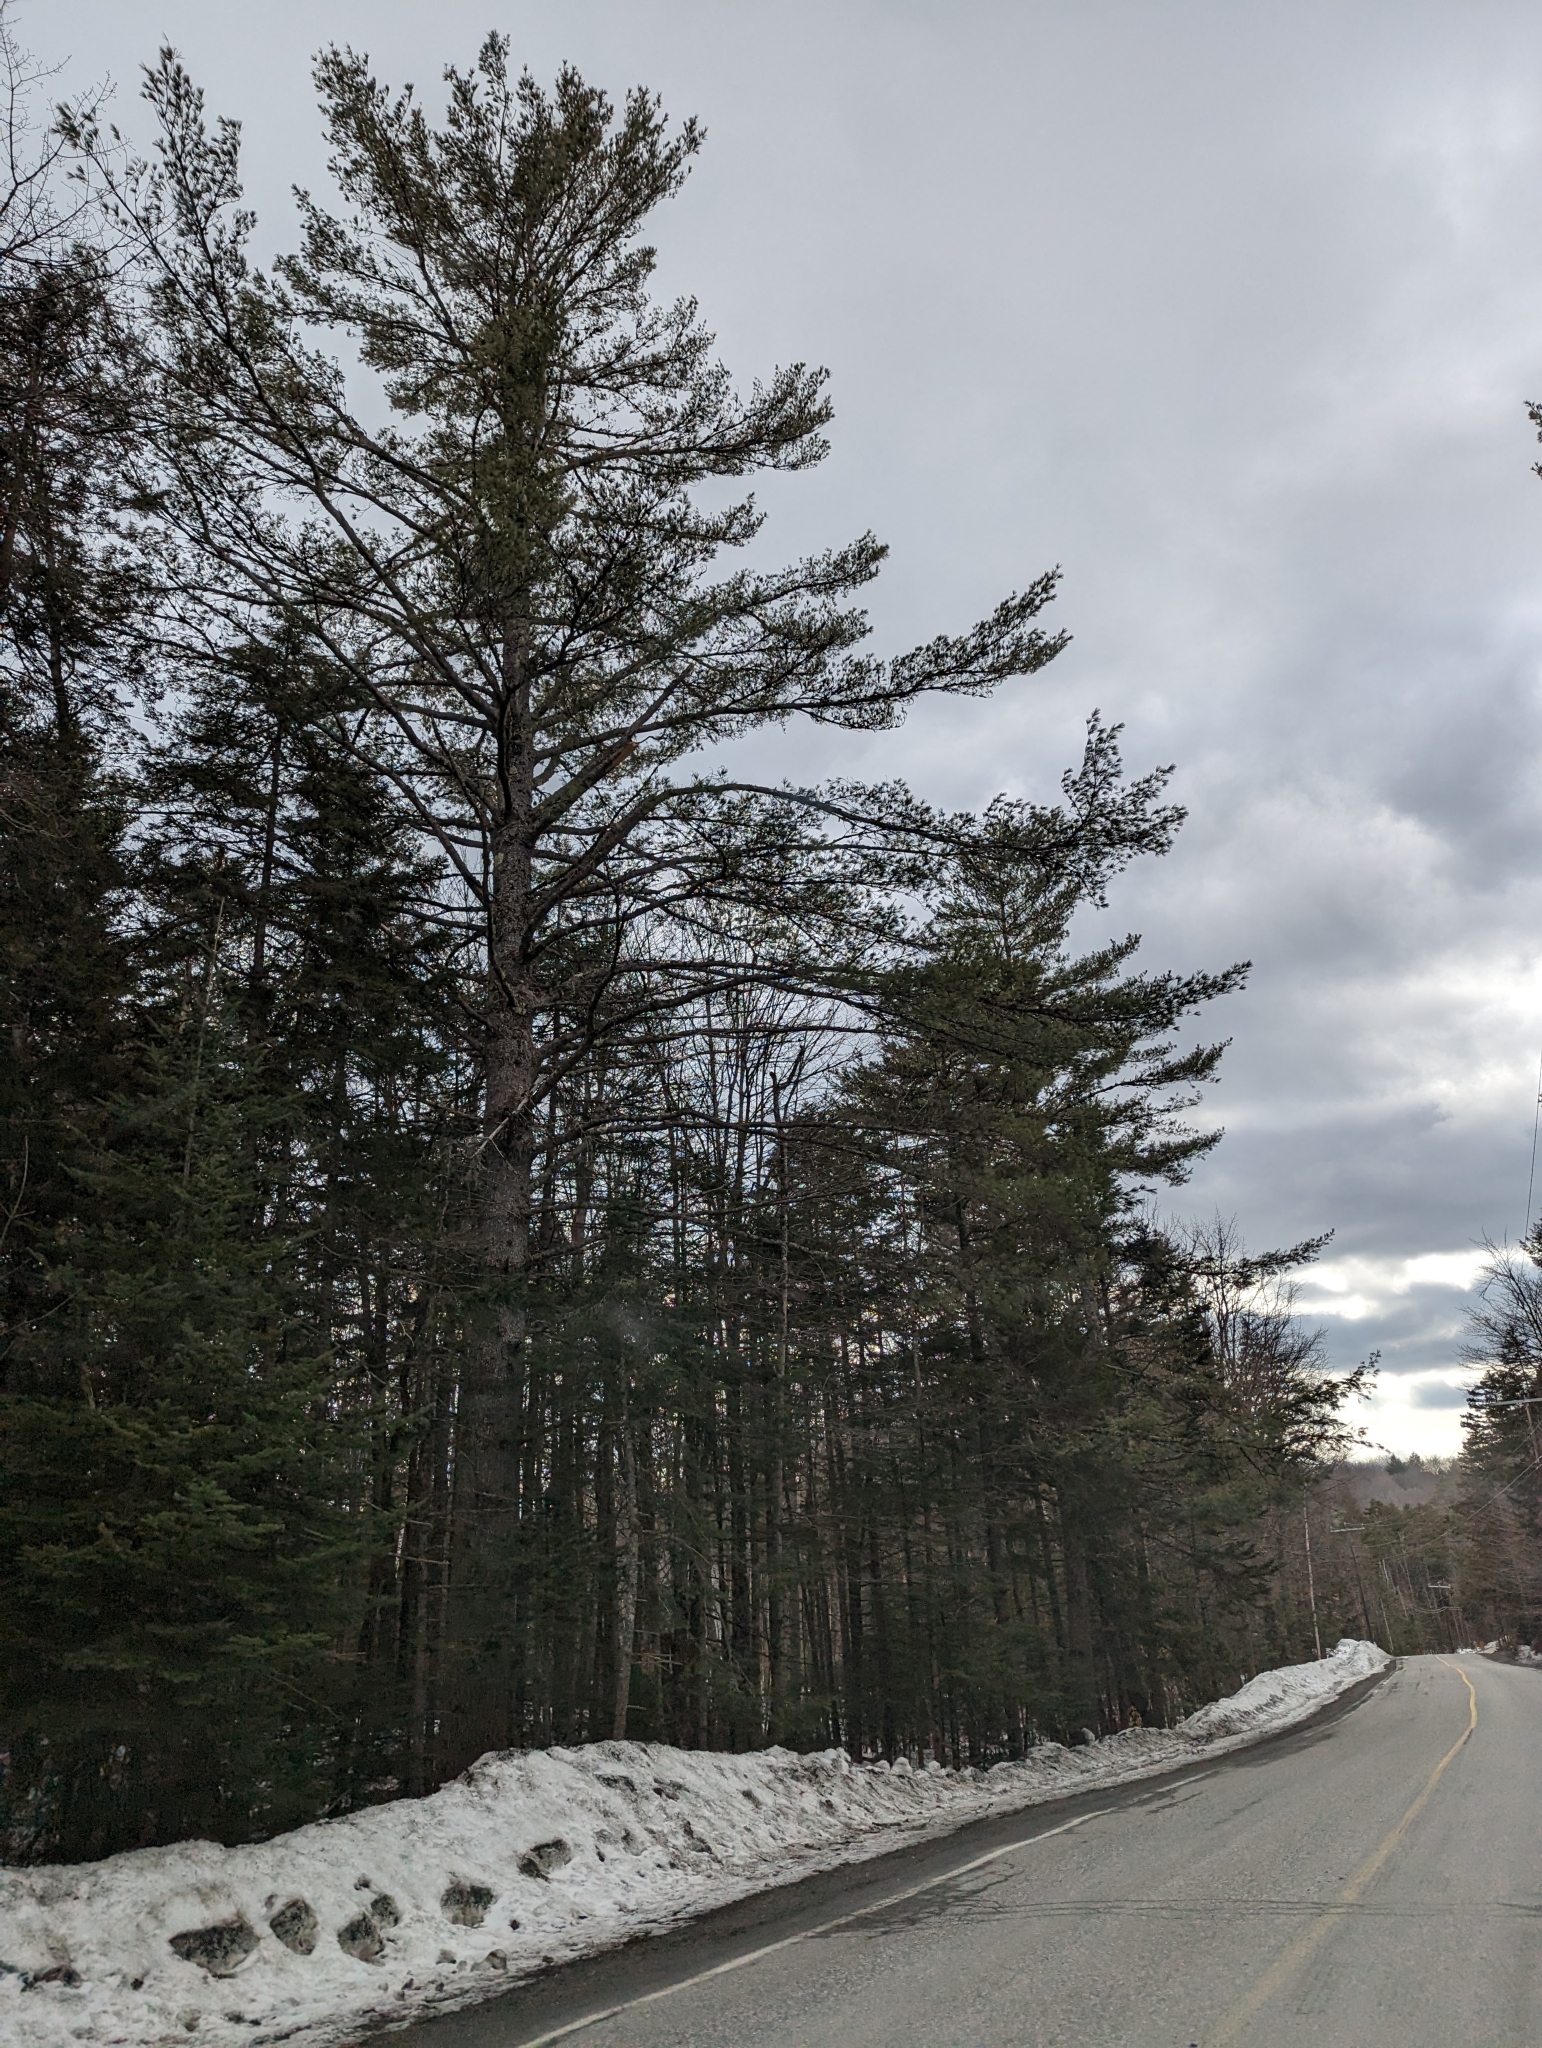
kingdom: Plantae
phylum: Tracheophyta
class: Pinopsida
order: Pinales
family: Pinaceae
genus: Pinus
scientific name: Pinus strobus
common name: Weymouth pine
